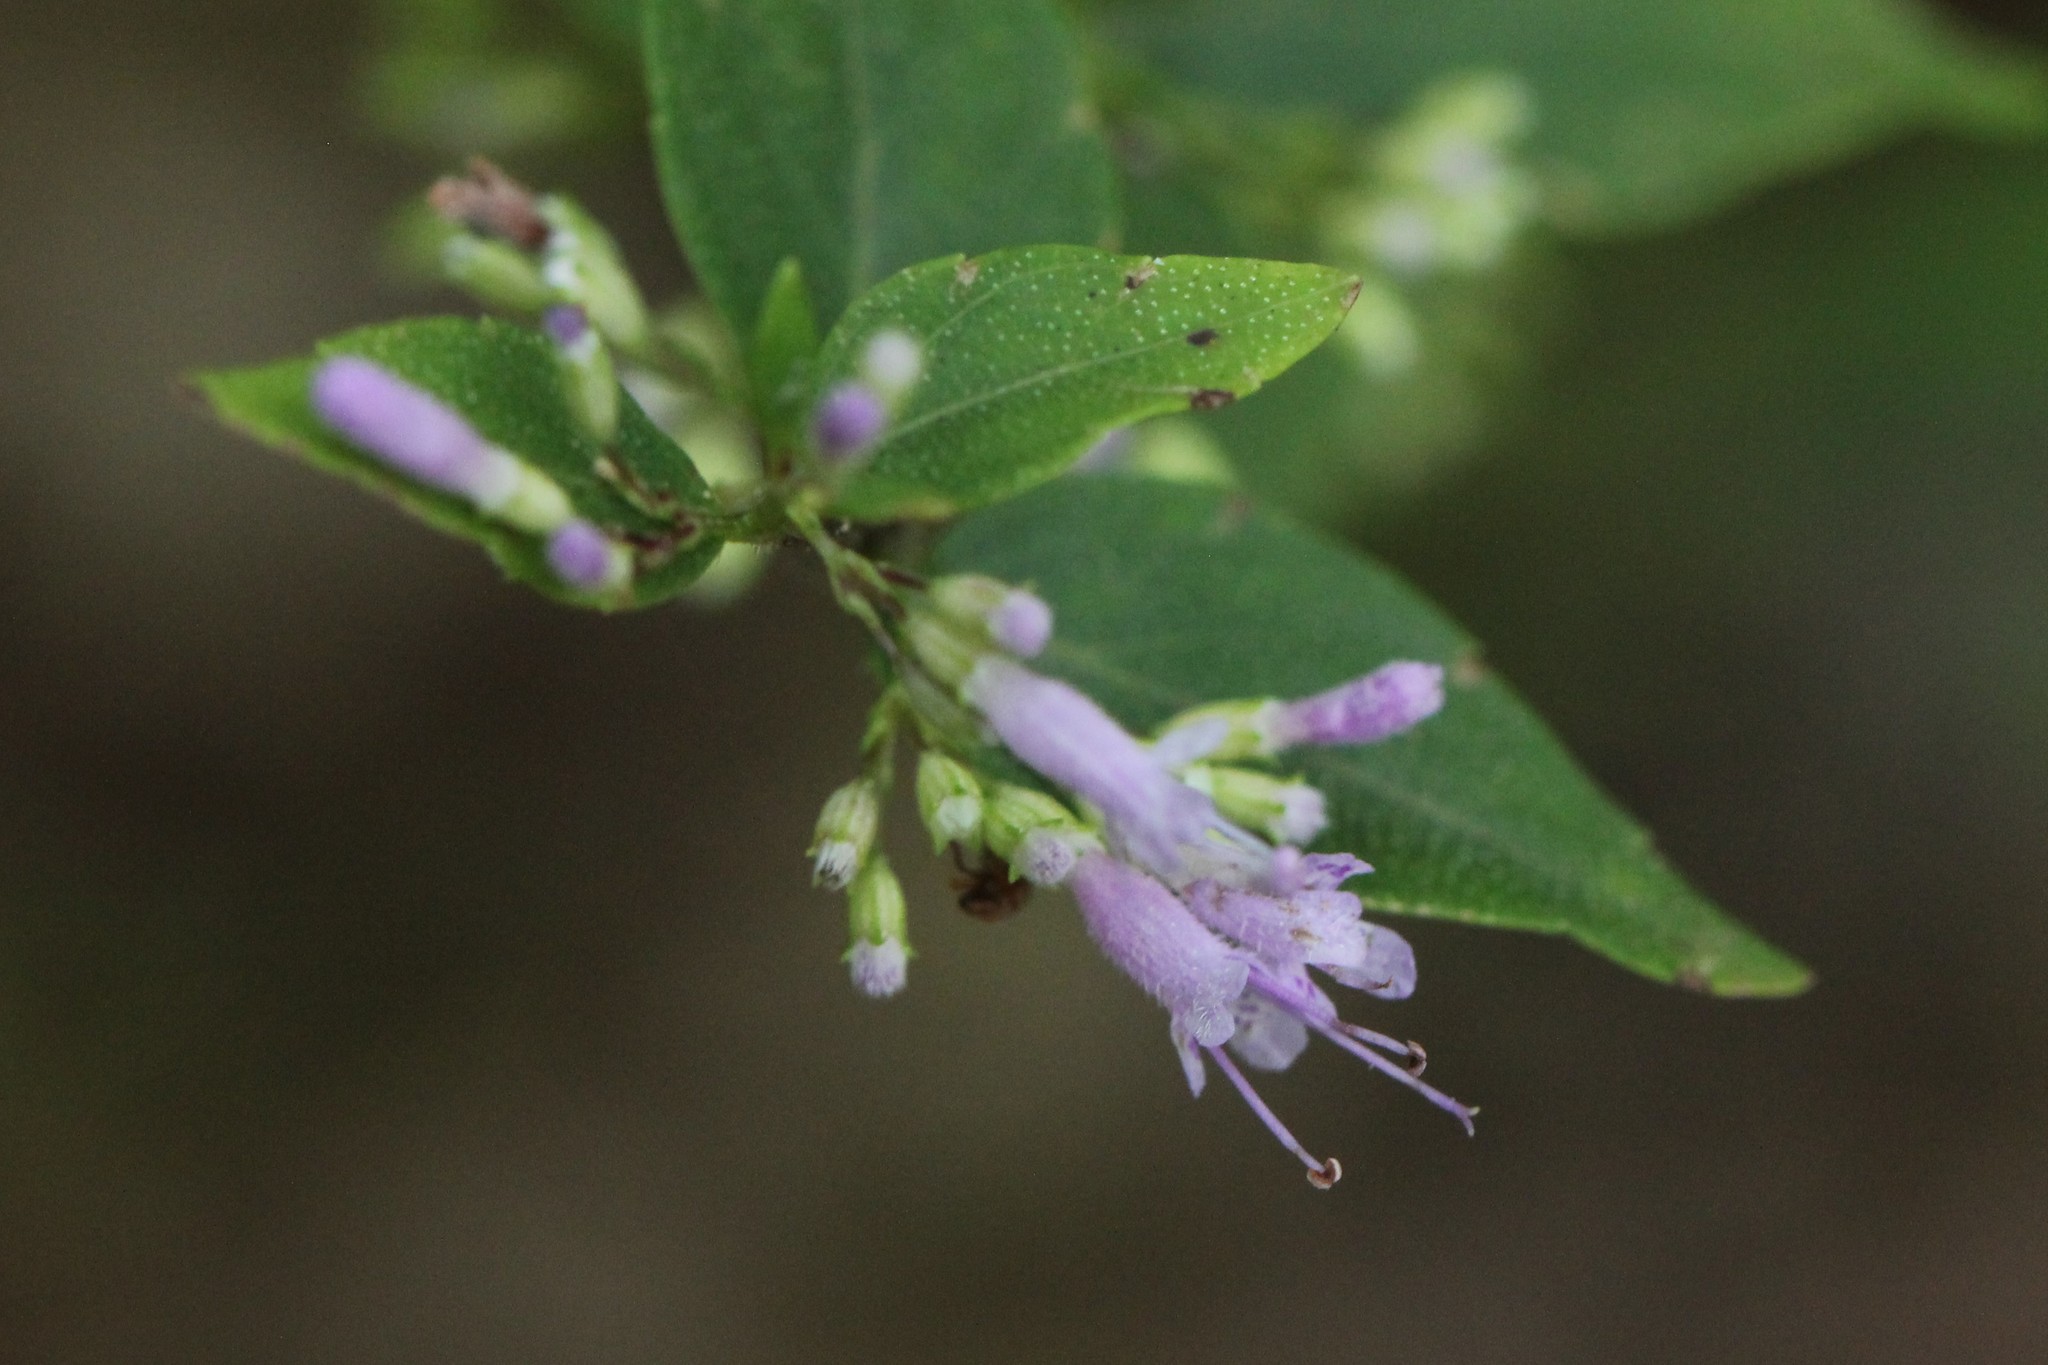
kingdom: Plantae
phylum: Tracheophyta
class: Magnoliopsida
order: Lamiales
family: Lamiaceae
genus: Cunila
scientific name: Cunila origanoides
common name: American dittany
